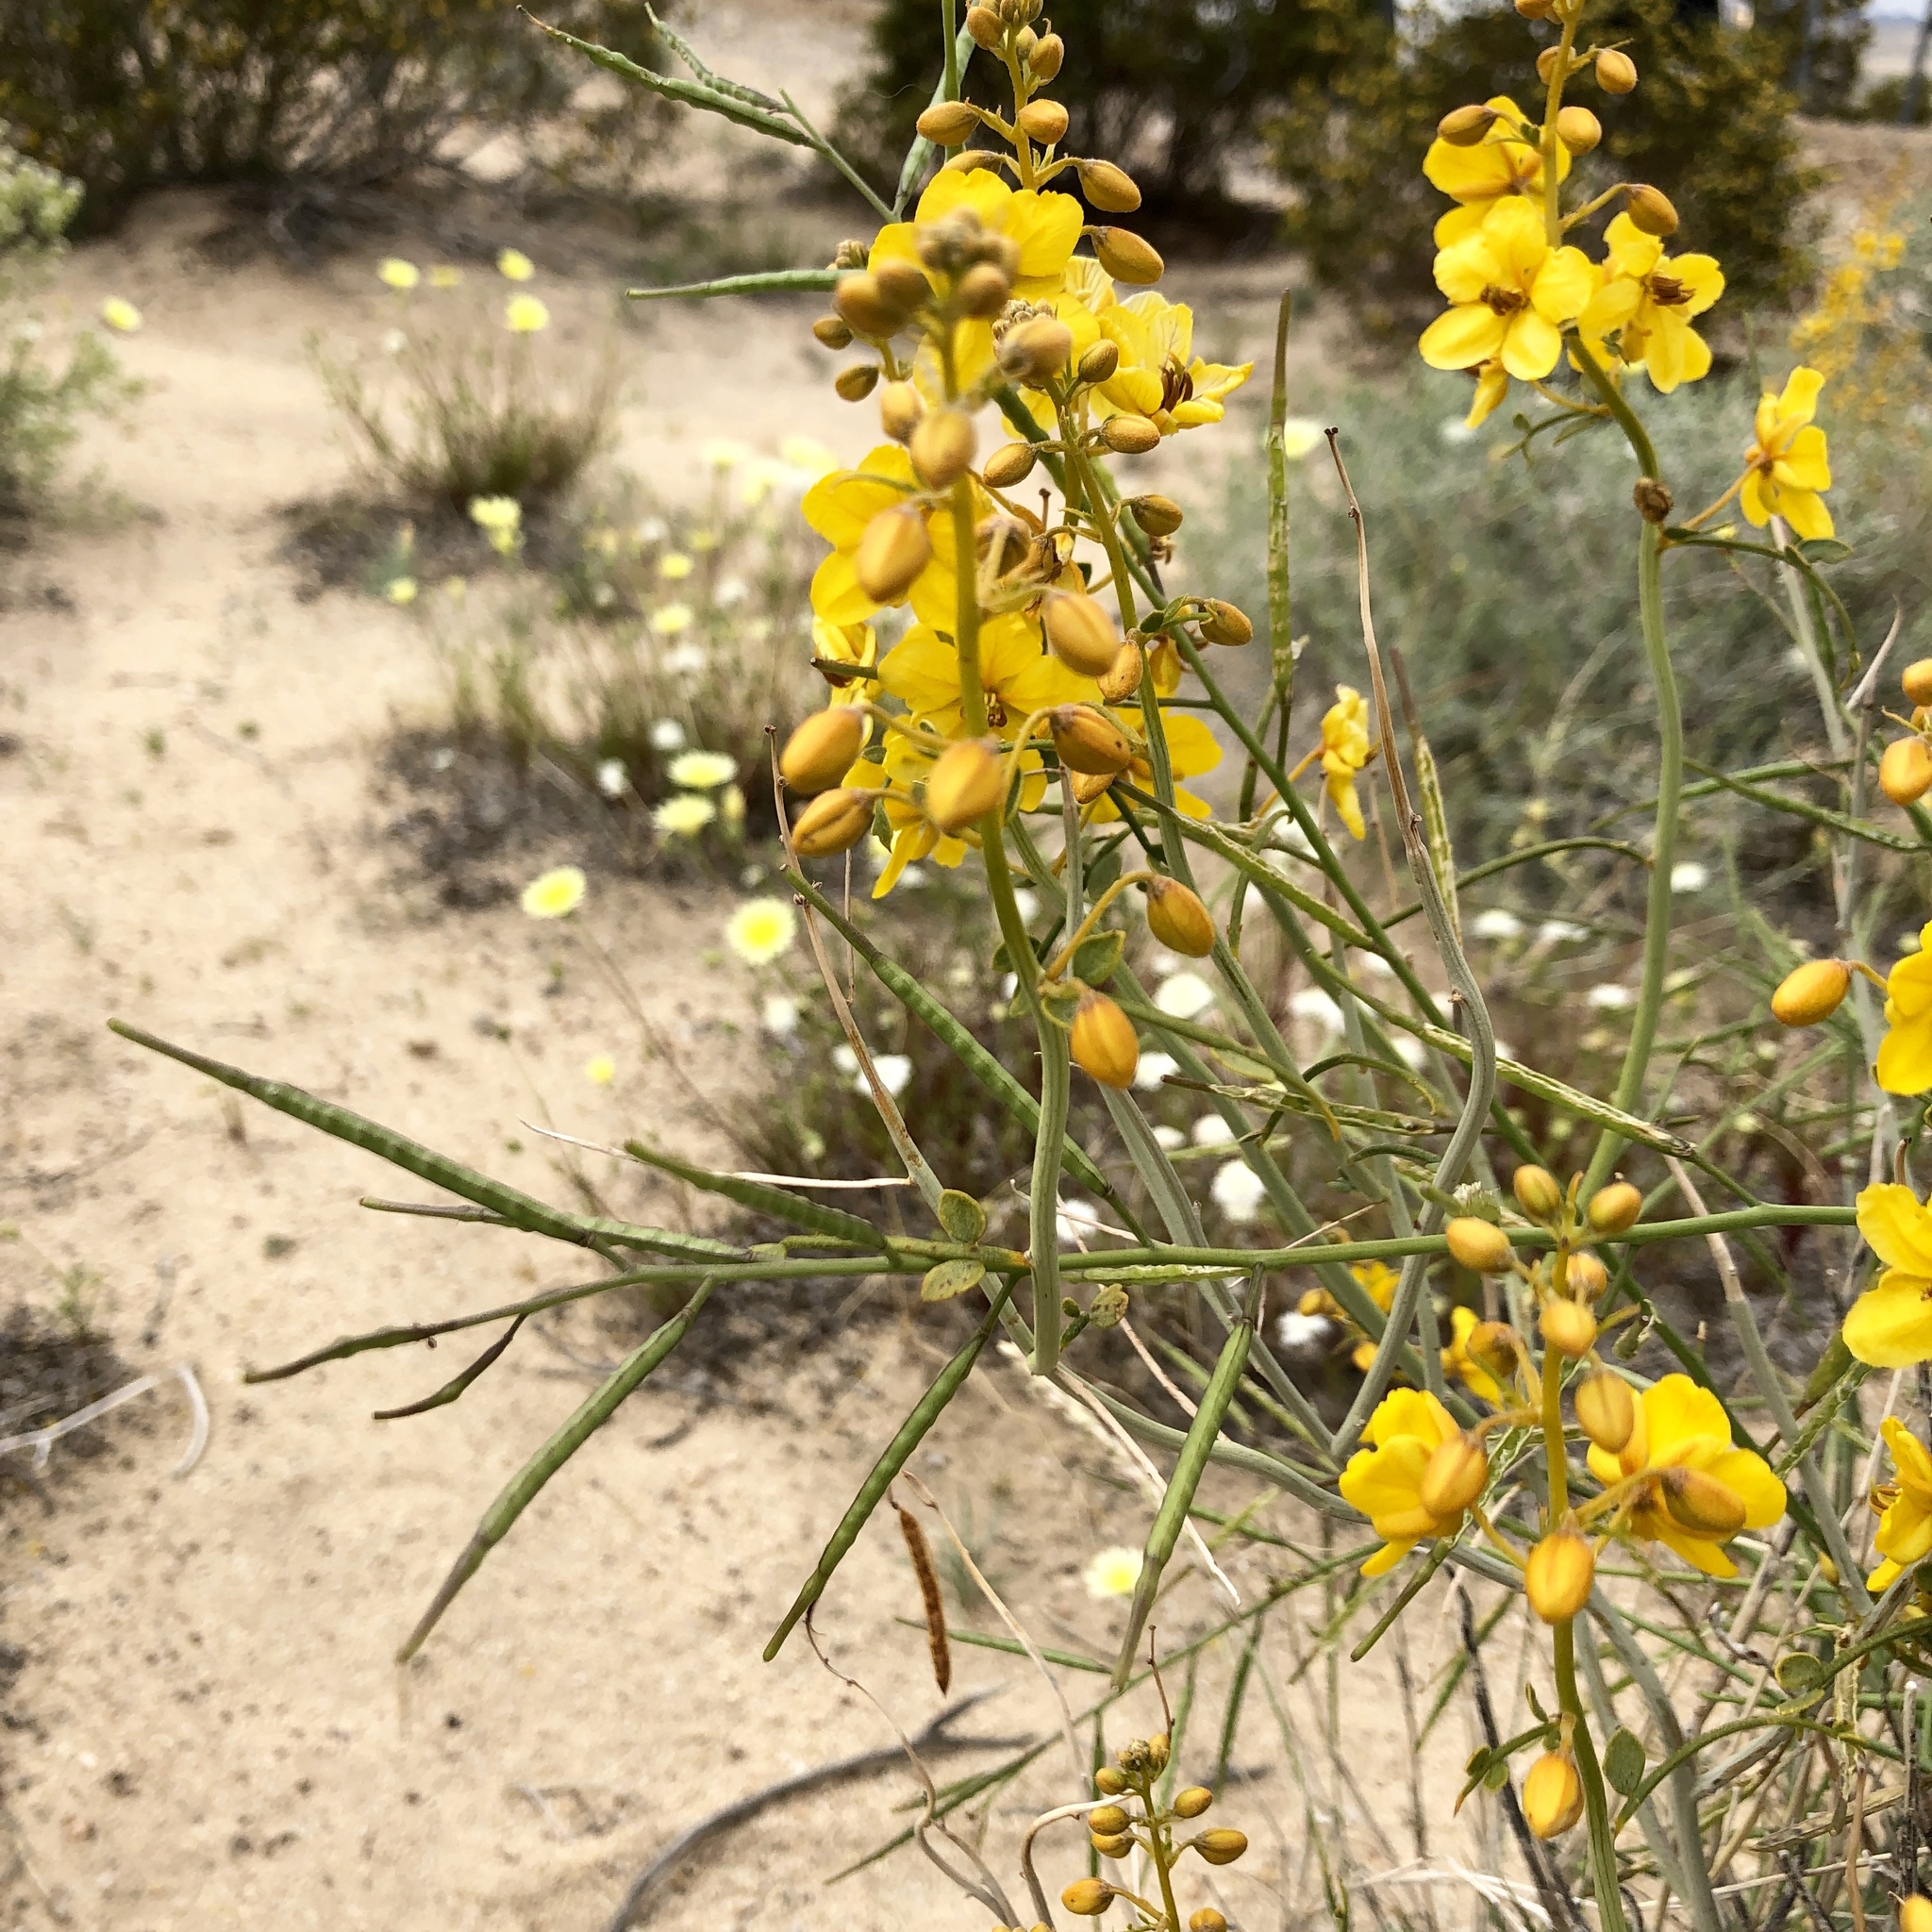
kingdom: Plantae
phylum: Tracheophyta
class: Magnoliopsida
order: Fabales
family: Fabaceae
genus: Senna
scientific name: Senna armata
